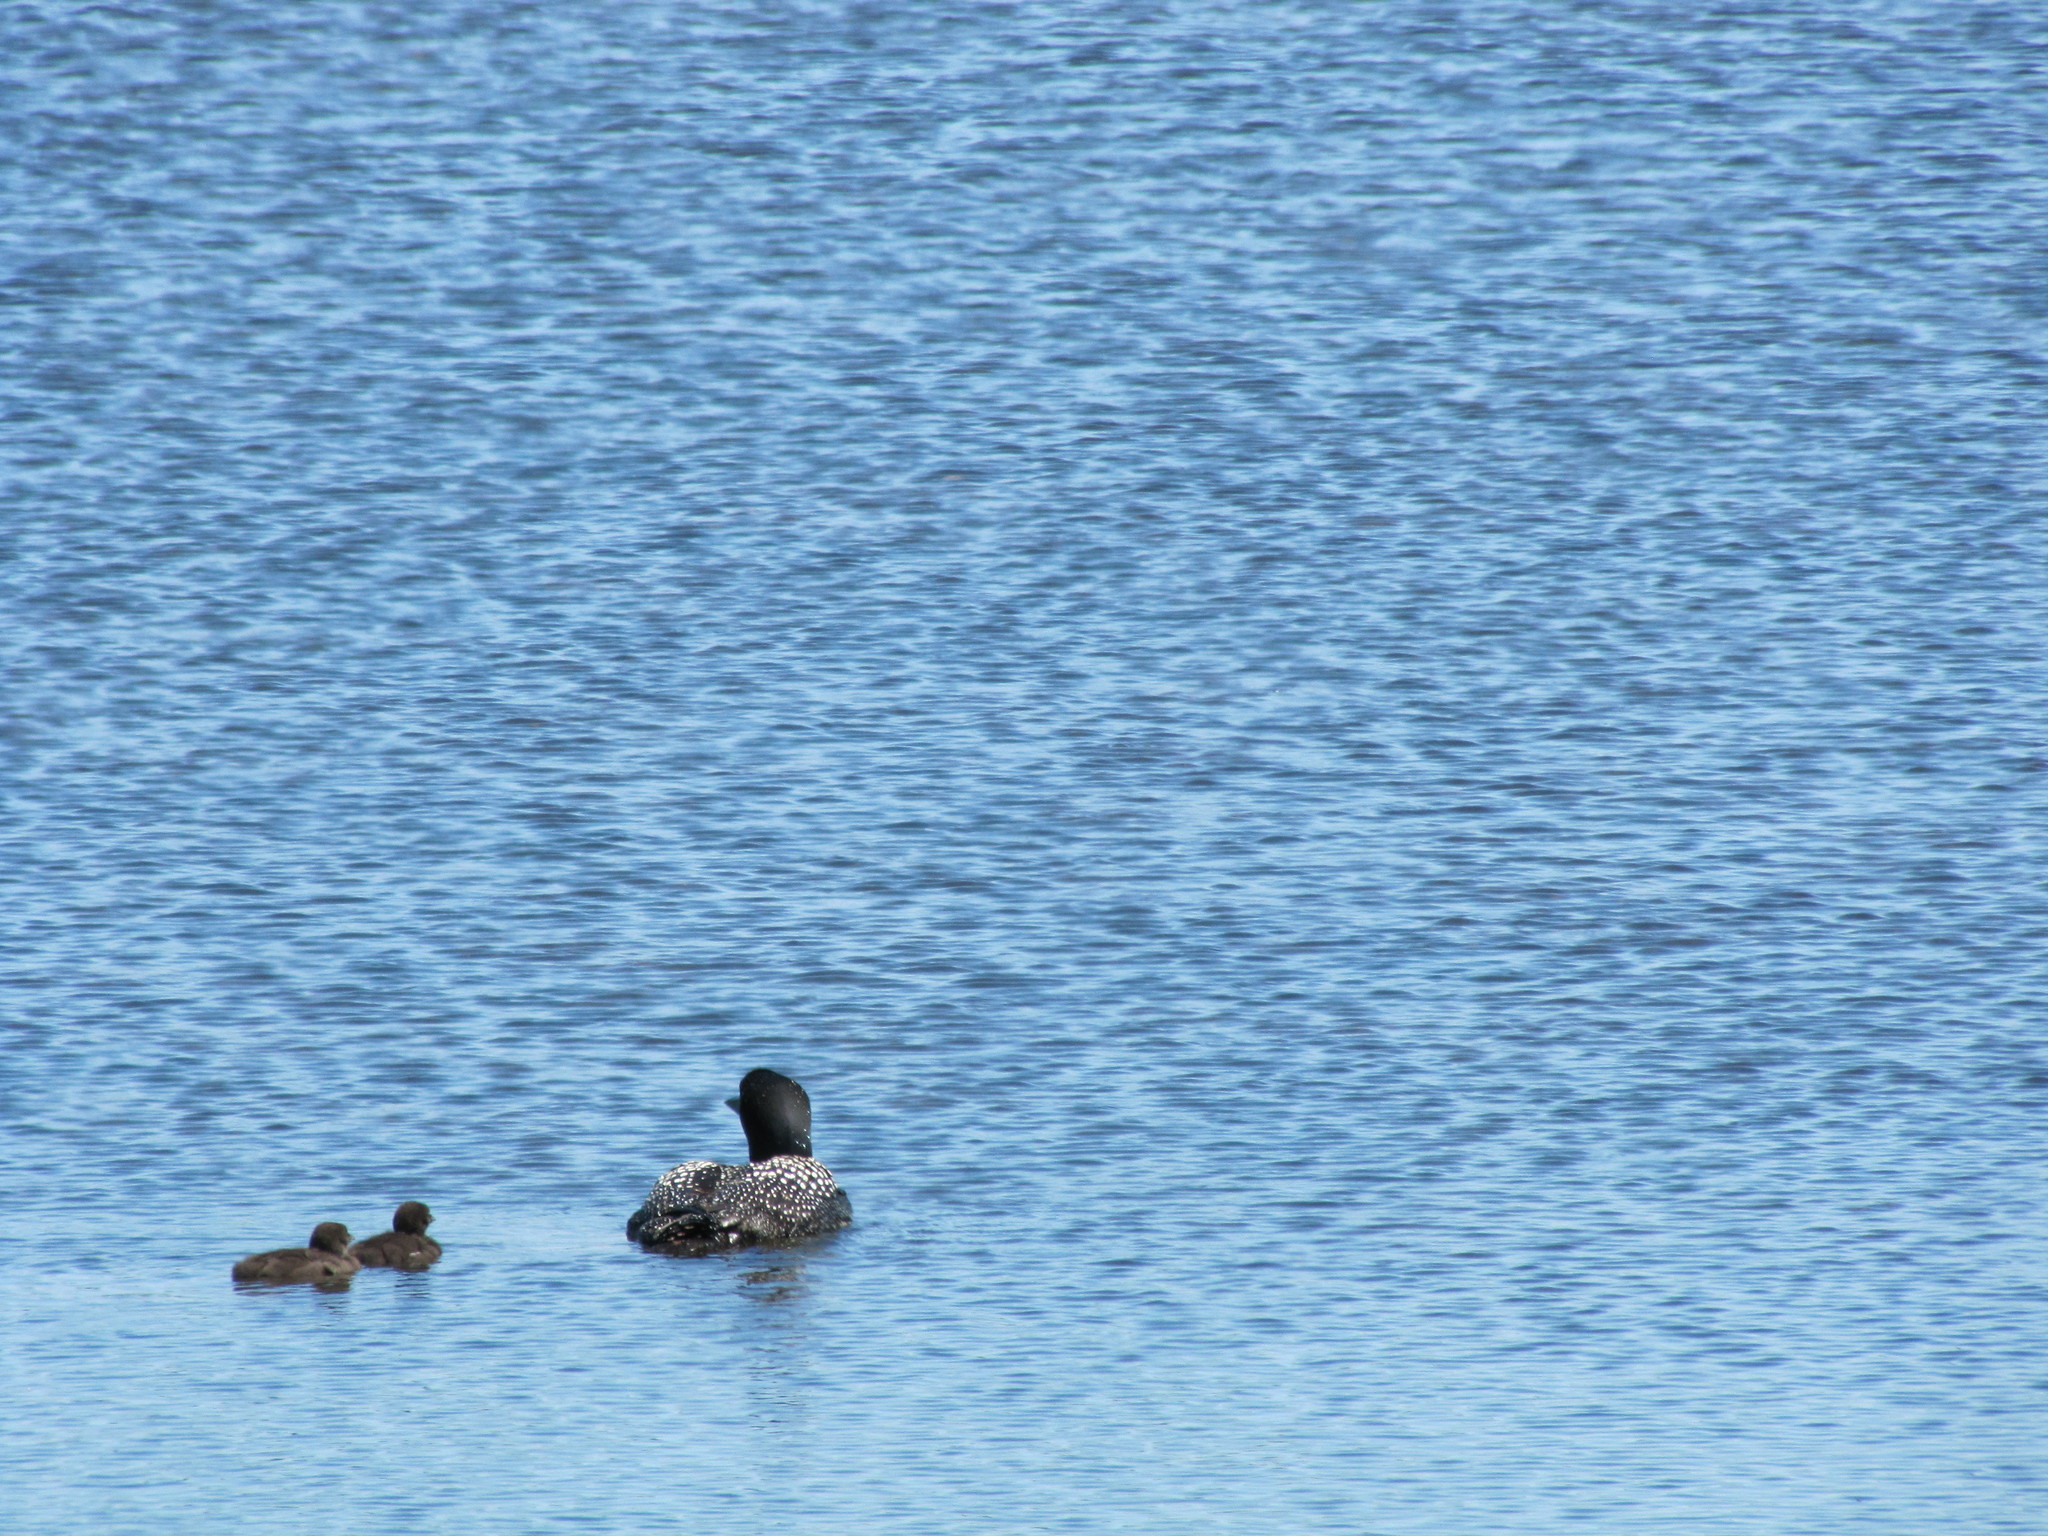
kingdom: Animalia
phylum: Chordata
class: Aves
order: Gaviiformes
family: Gaviidae
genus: Gavia
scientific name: Gavia immer
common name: Common loon
